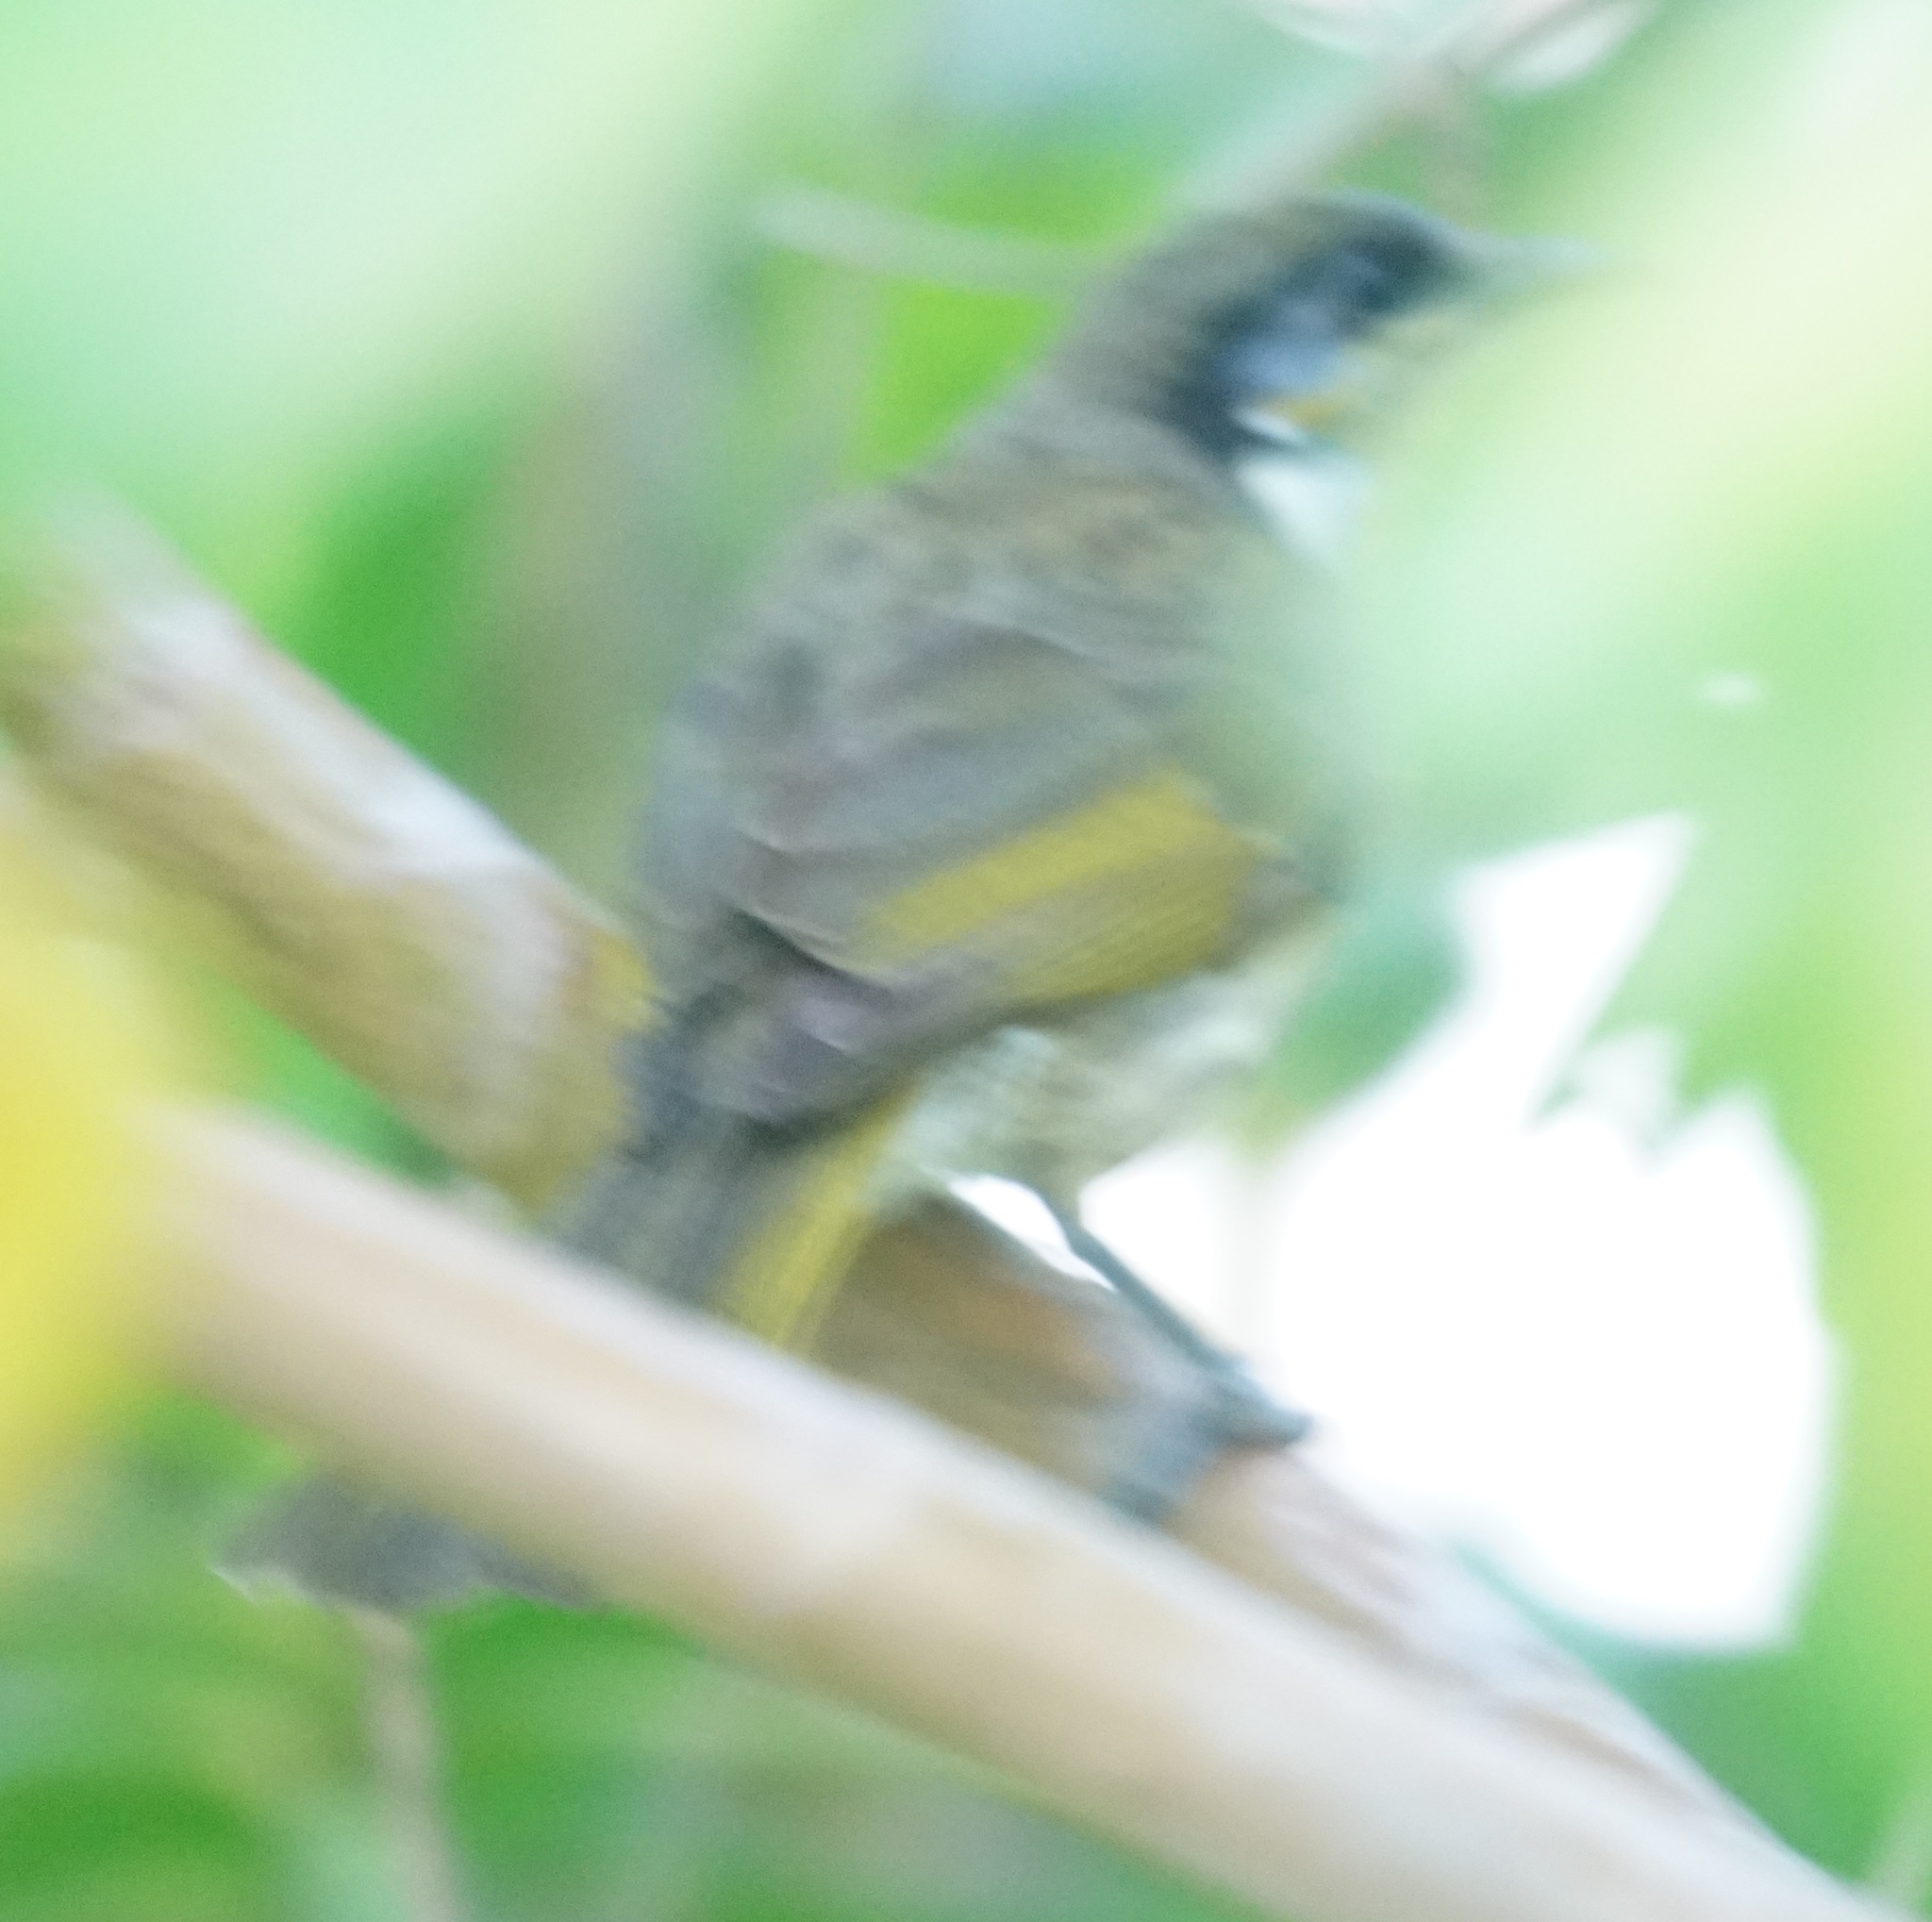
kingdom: Animalia
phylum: Chordata
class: Aves
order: Passeriformes
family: Meliphagidae
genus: Gavicalis
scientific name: Gavicalis versicolor
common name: Varied honeyeater
